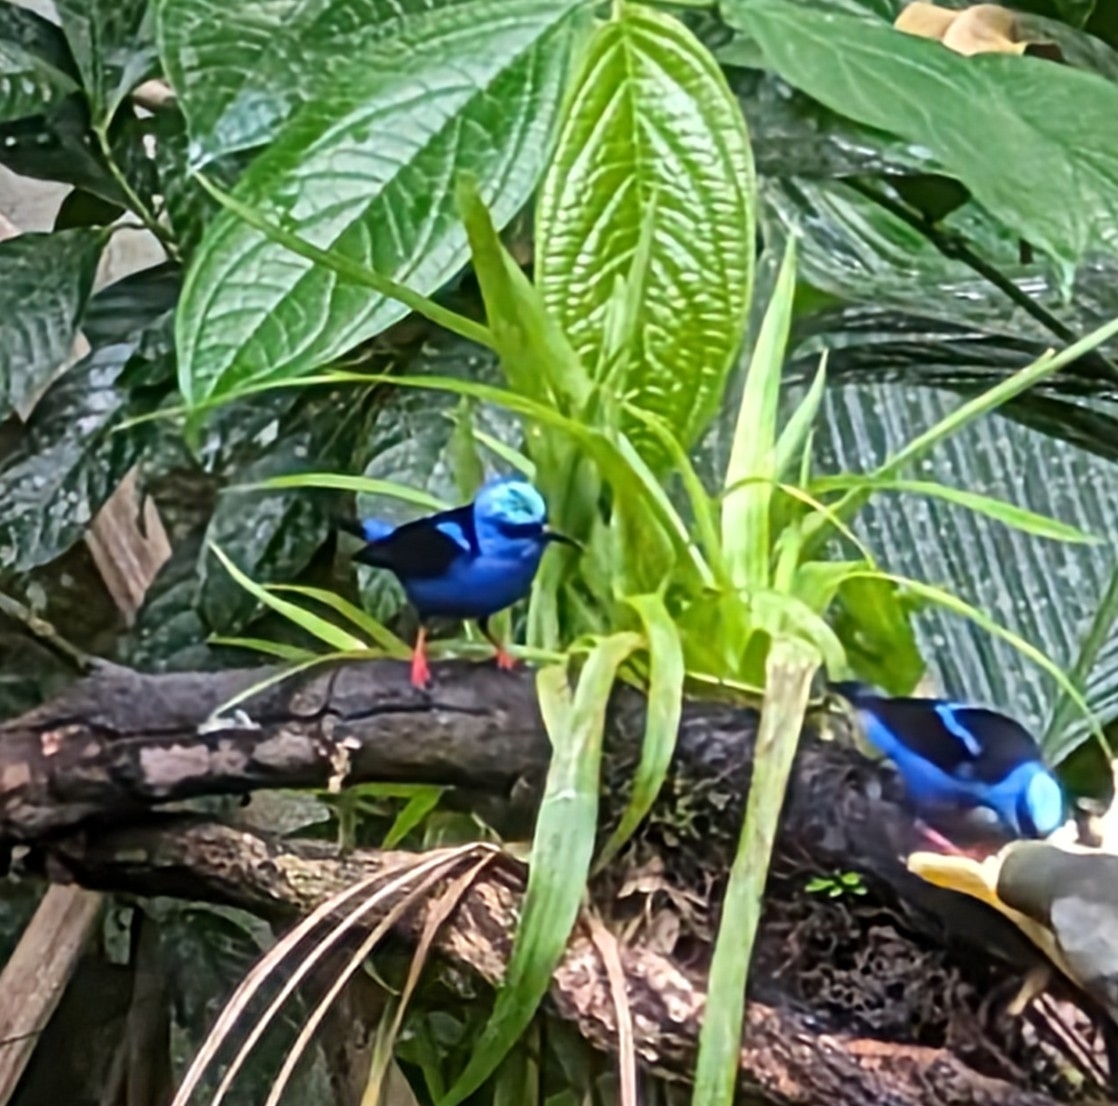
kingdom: Animalia
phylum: Chordata
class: Aves
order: Passeriformes
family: Thraupidae
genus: Cyanerpes
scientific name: Cyanerpes cyaneus
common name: Red-legged honeycreeper
